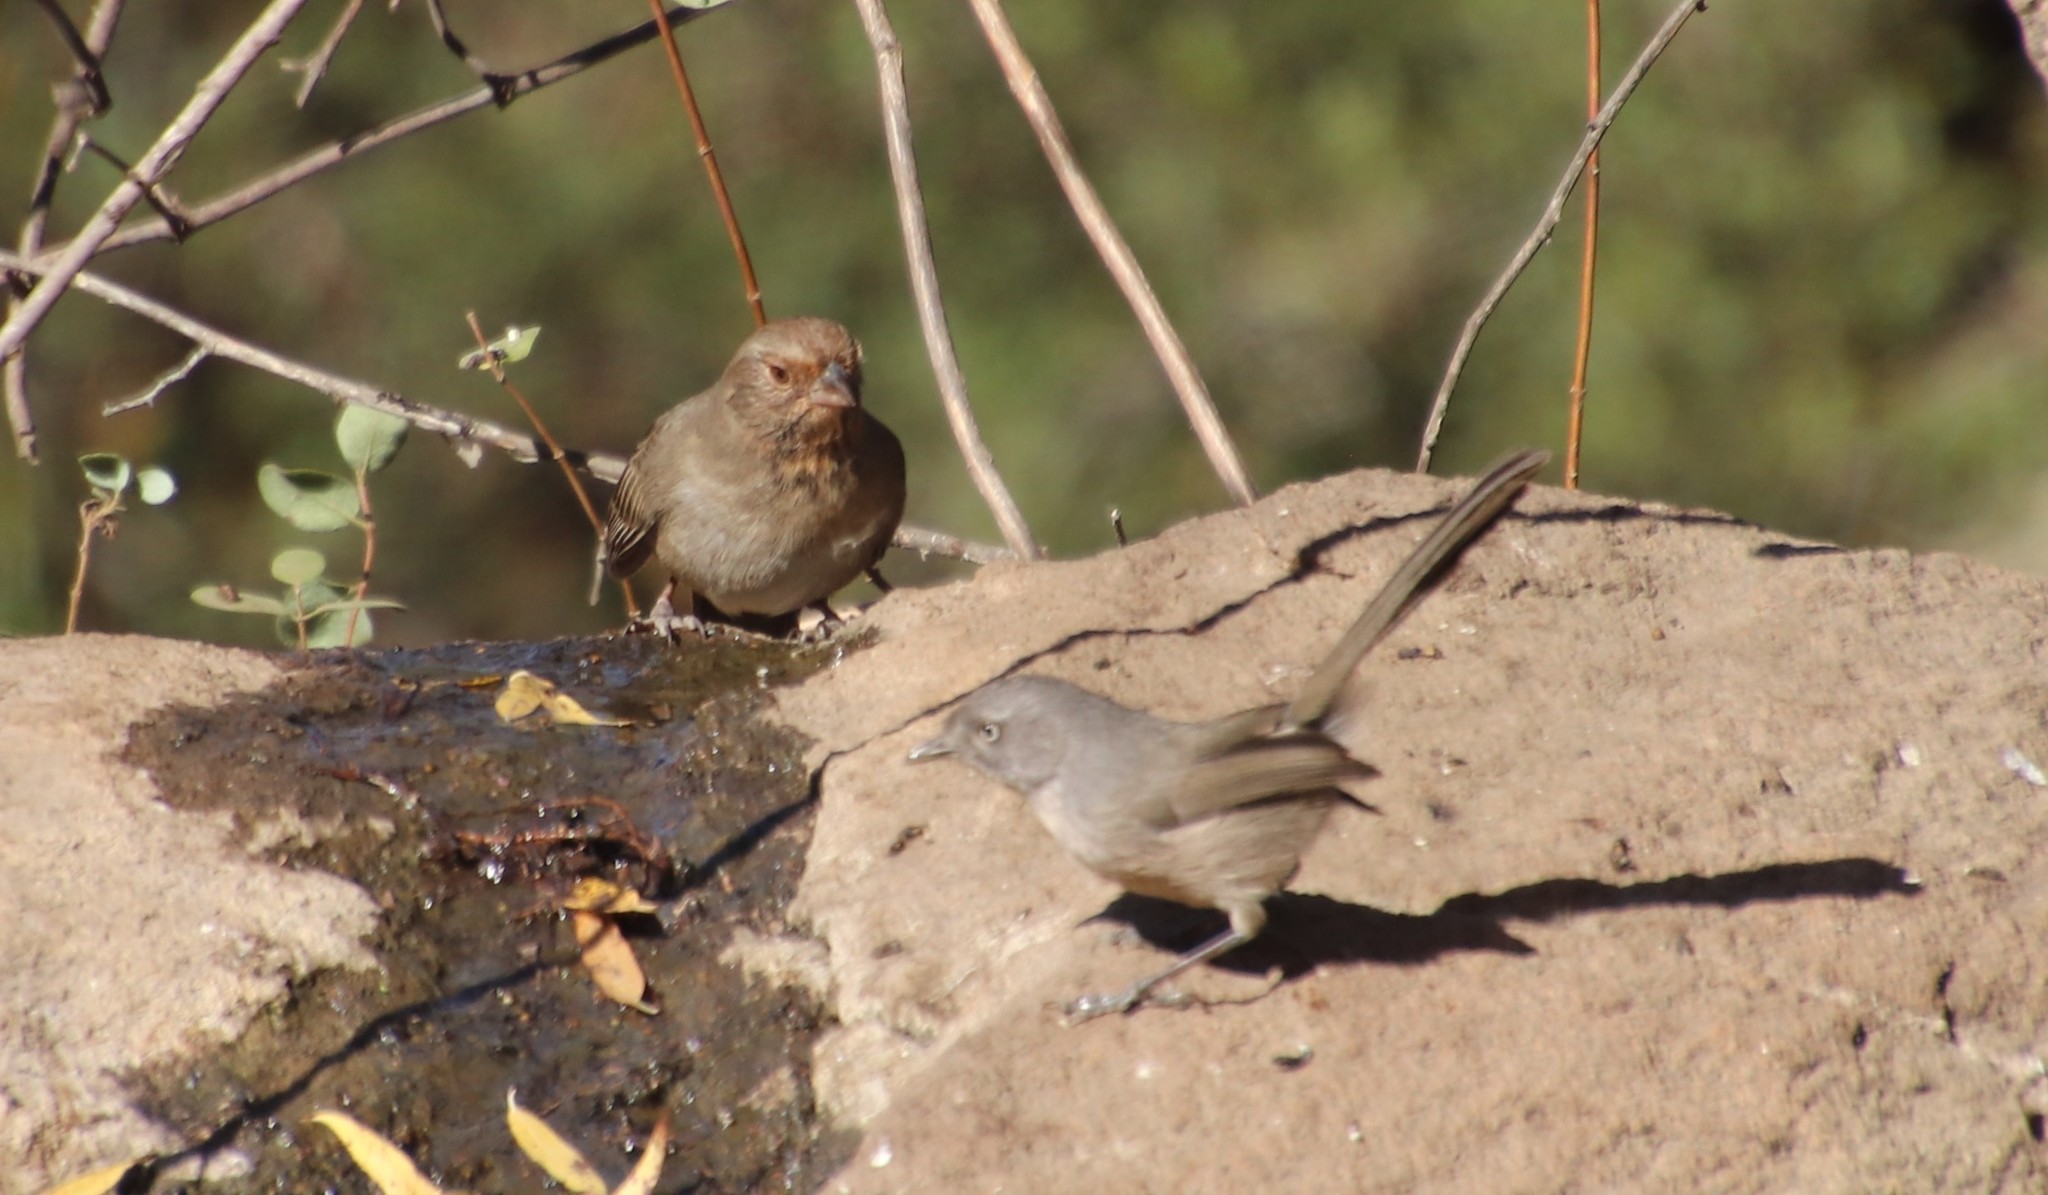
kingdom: Animalia
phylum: Chordata
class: Aves
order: Passeriformes
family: Passerellidae
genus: Melozone
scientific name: Melozone crissalis
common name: California towhee
